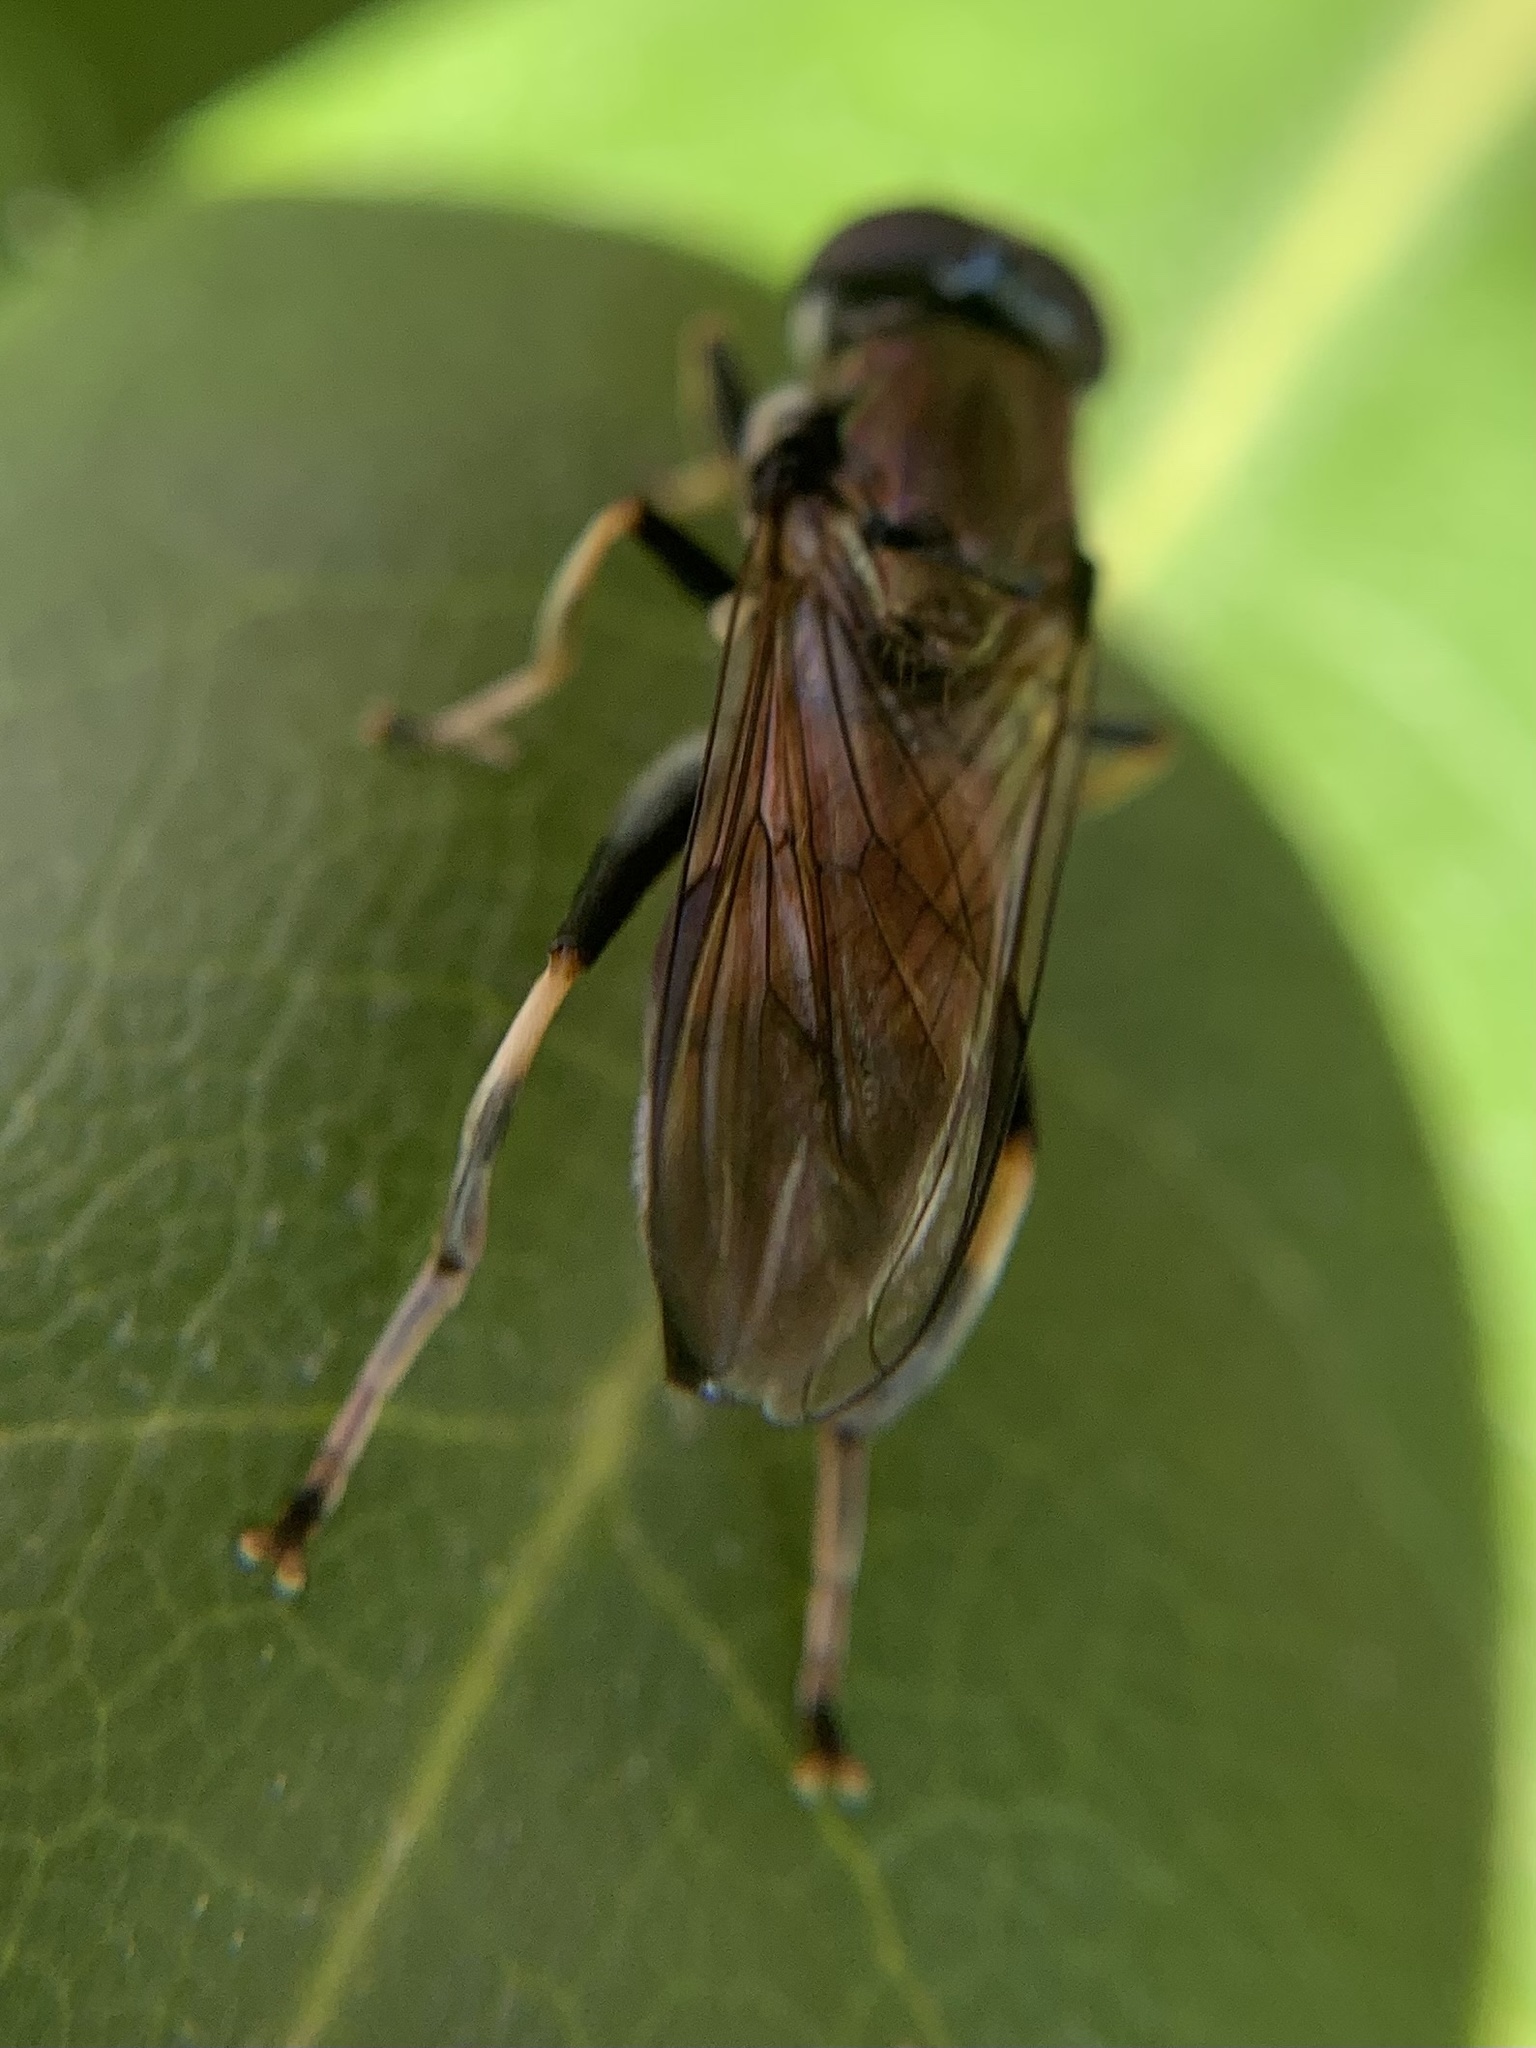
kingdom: Animalia
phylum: Arthropoda
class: Insecta
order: Diptera
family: Syrphidae
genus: Xylota
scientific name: Xylota segnis
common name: Brown-toed forest fly
